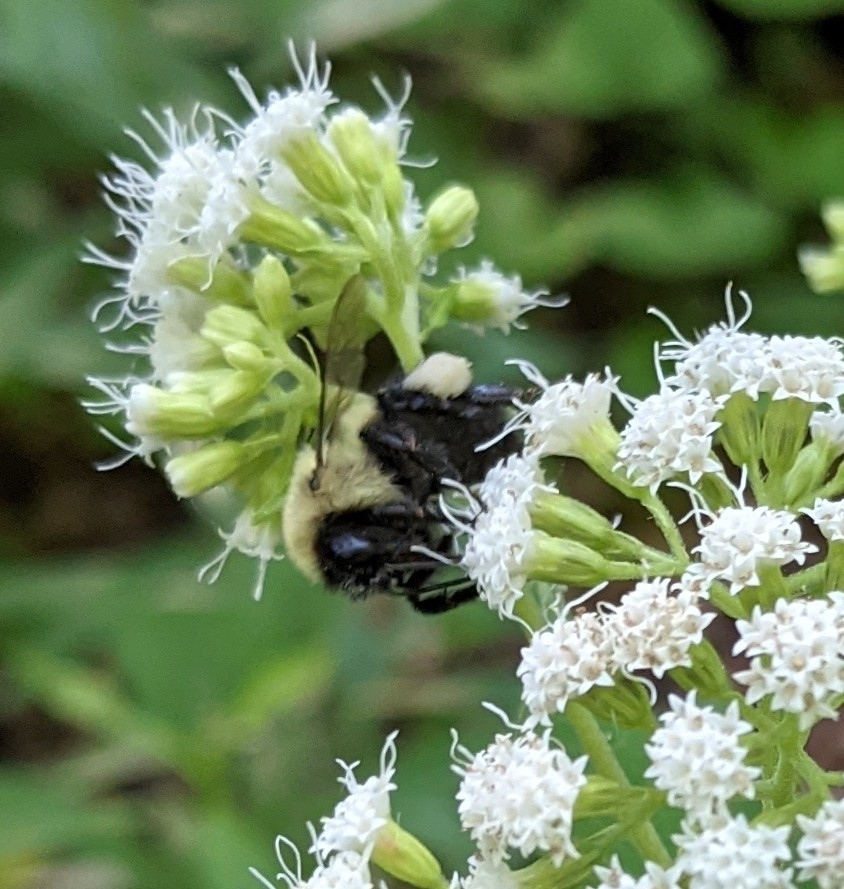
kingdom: Animalia
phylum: Arthropoda
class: Insecta
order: Hymenoptera
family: Apidae
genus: Bombus
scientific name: Bombus impatiens
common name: Common eastern bumble bee
